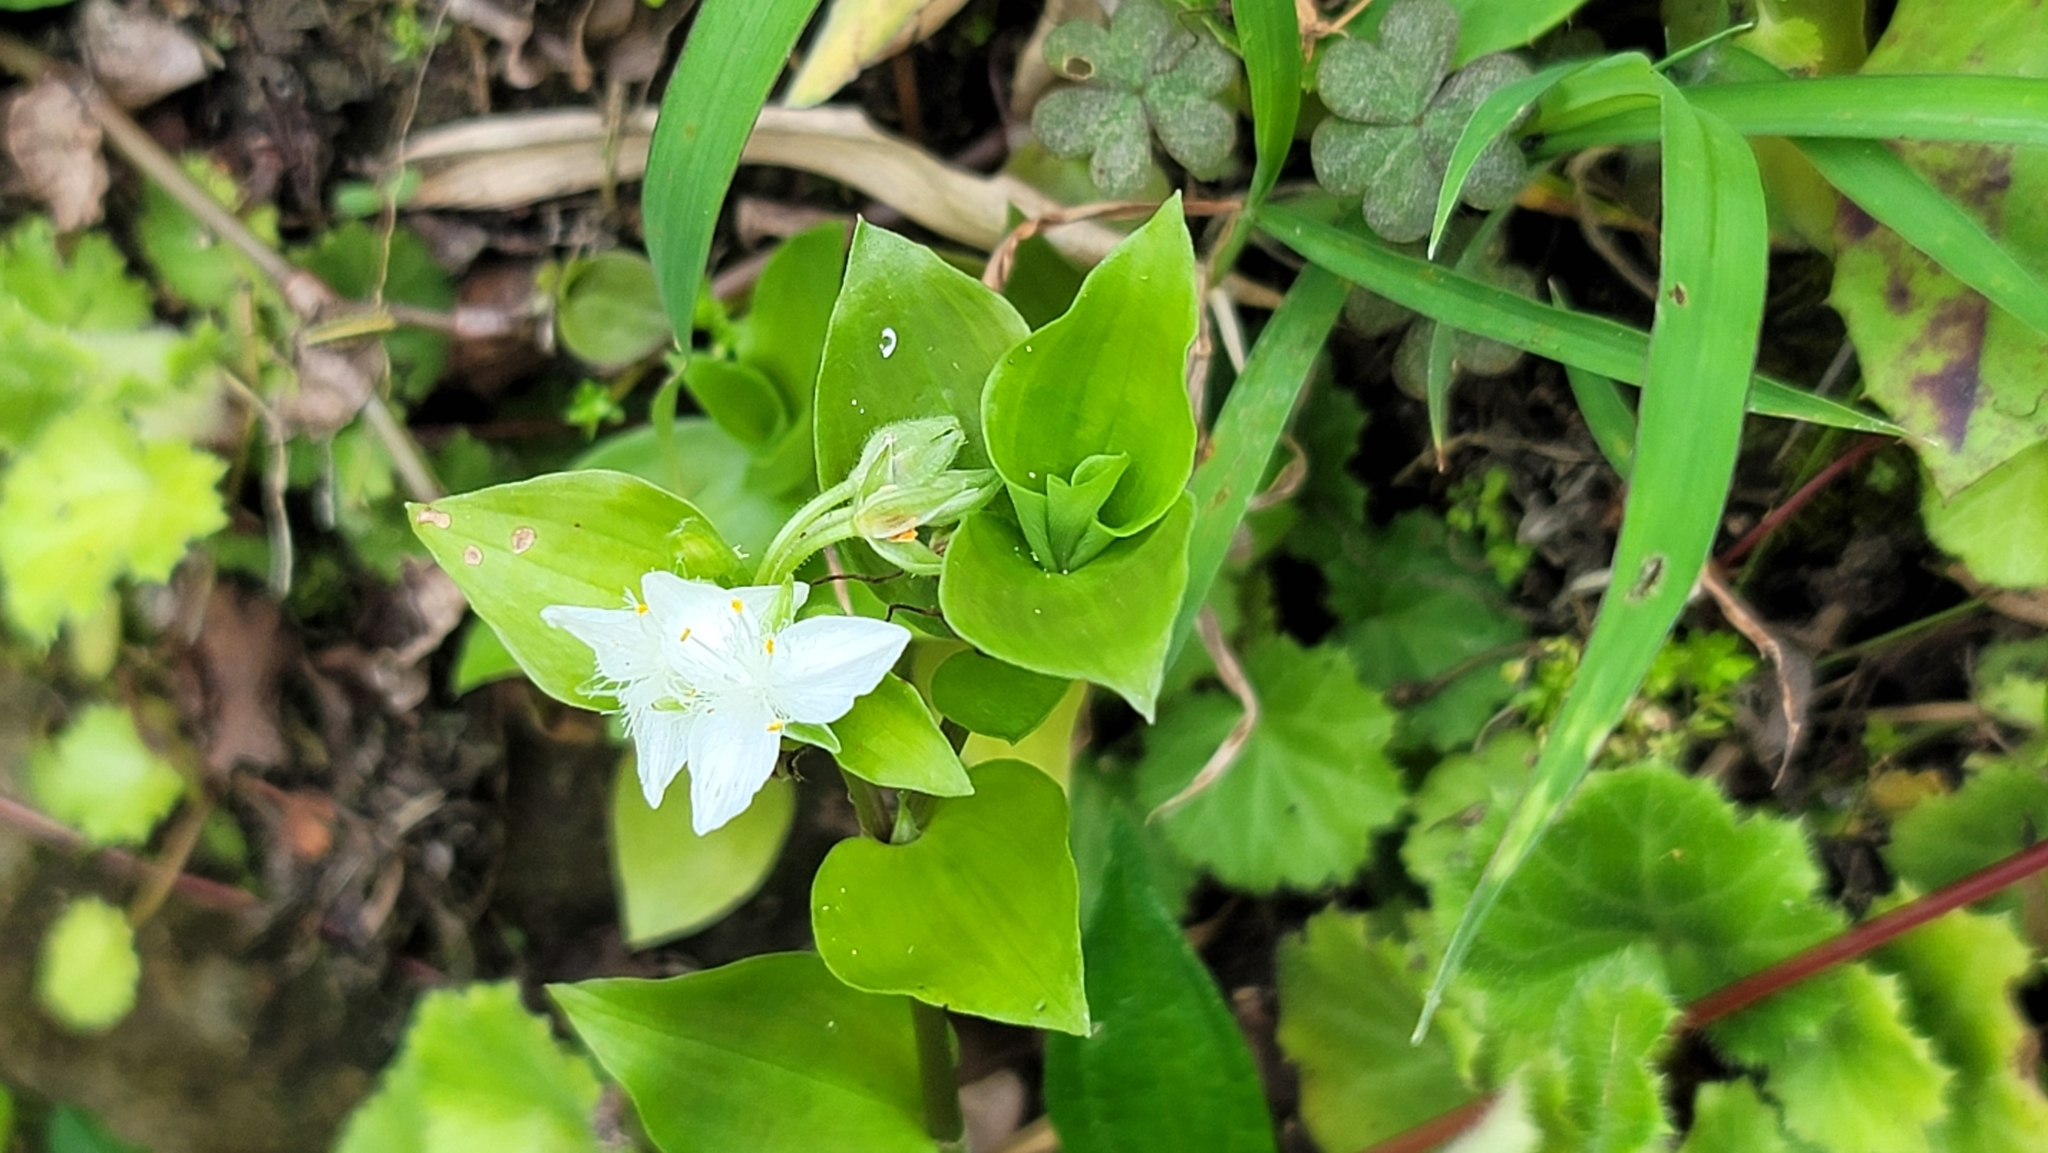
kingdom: Plantae
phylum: Tracheophyta
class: Liliopsida
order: Commelinales
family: Commelinaceae
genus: Tradescantia
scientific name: Tradescantia fluminensis
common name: Wandering-jew
